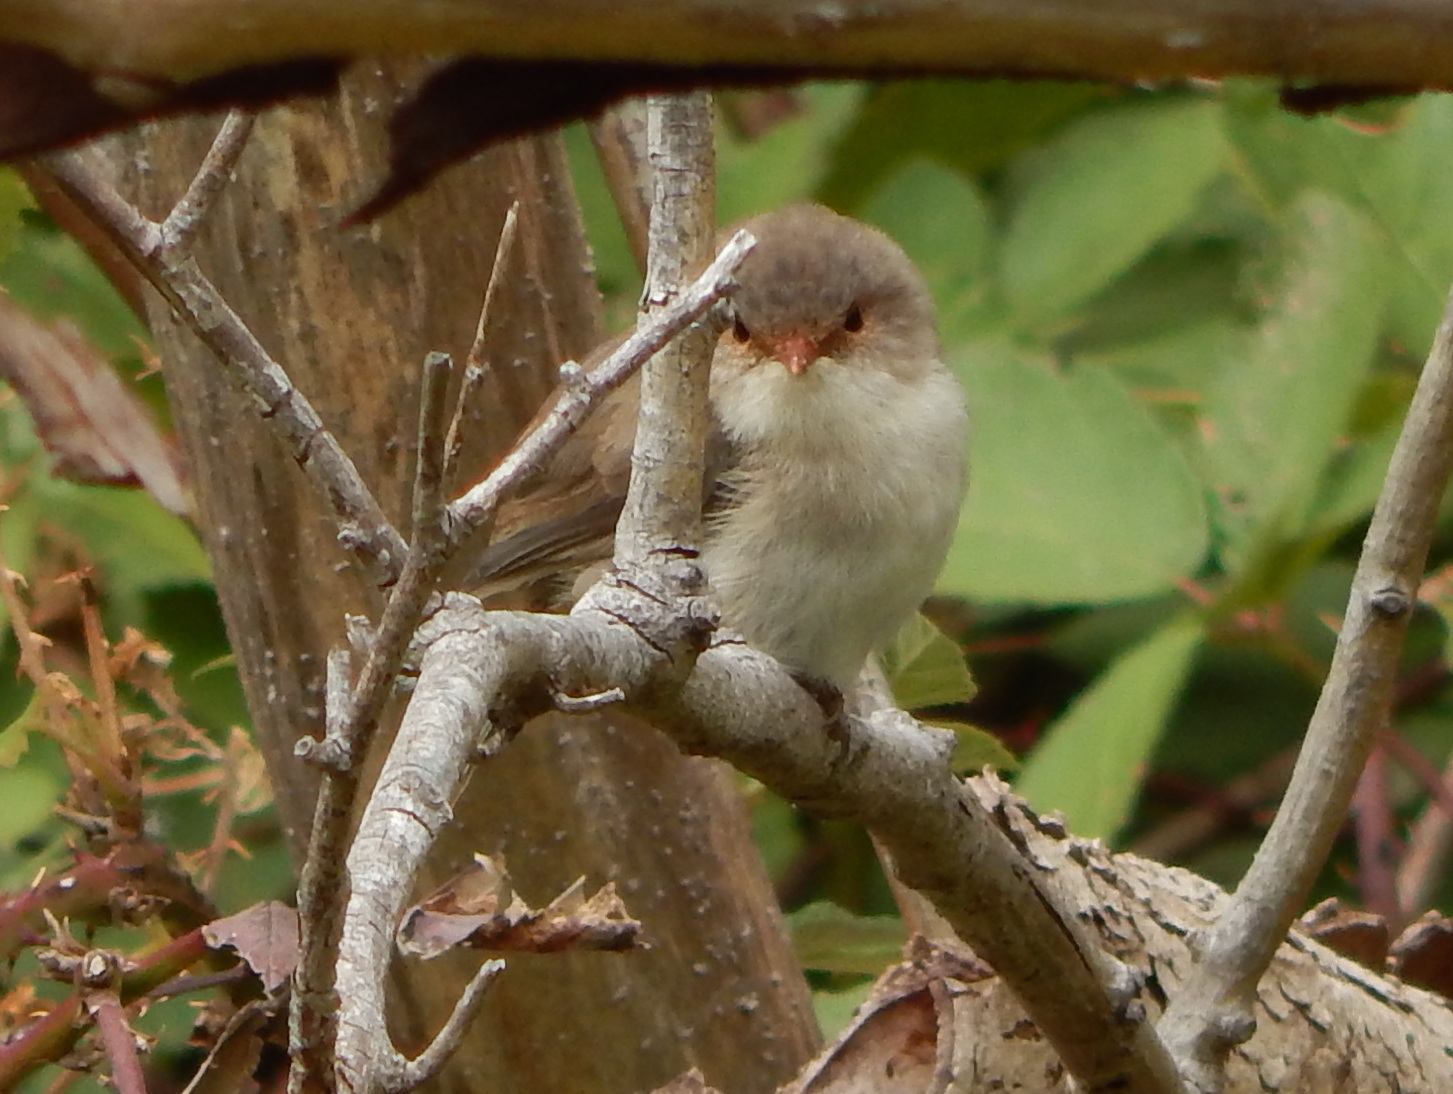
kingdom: Animalia
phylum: Chordata
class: Aves
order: Passeriformes
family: Maluridae
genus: Malurus
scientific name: Malurus cyaneus
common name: Superb fairywren
